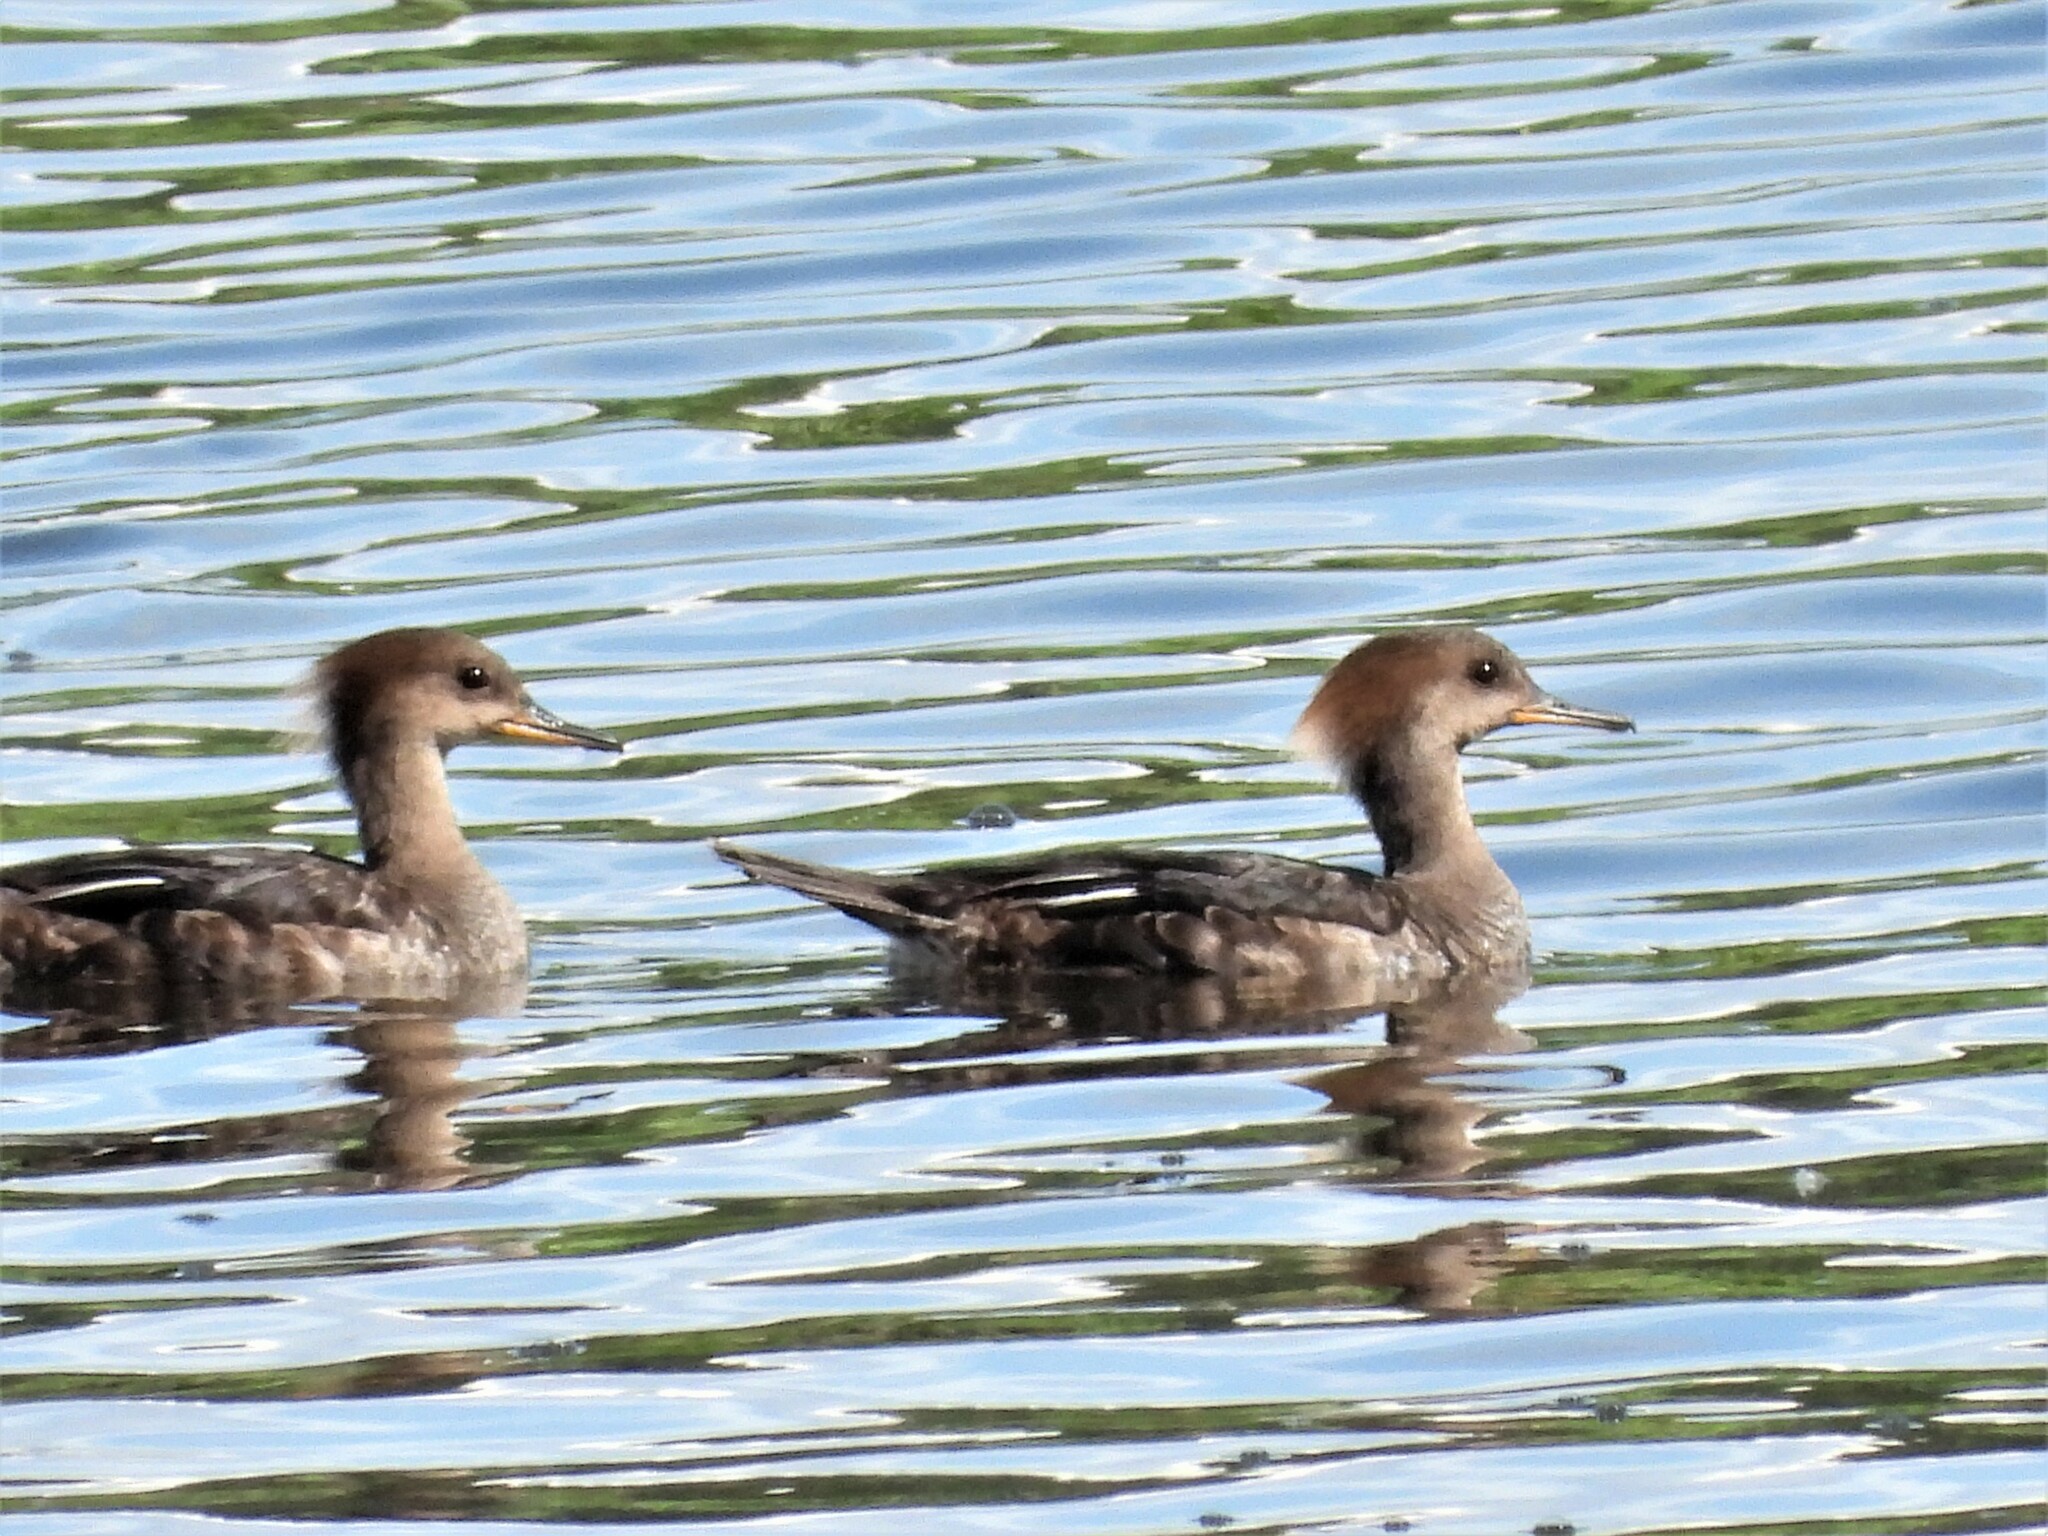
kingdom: Animalia
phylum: Chordata
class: Aves
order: Anseriformes
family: Anatidae
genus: Lophodytes
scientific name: Lophodytes cucullatus
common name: Hooded merganser
